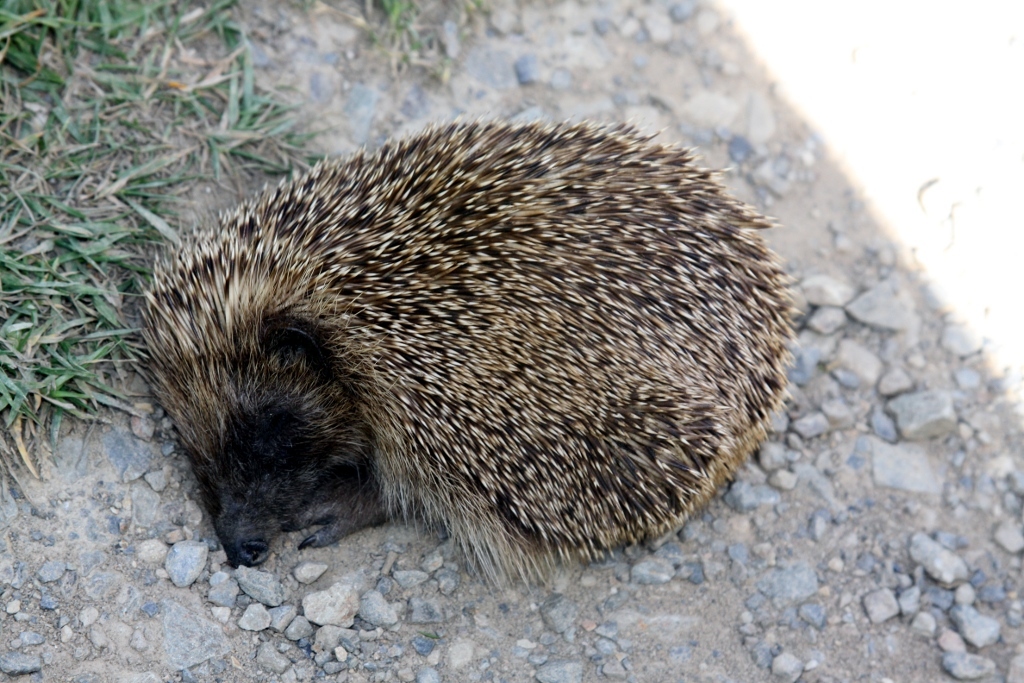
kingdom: Animalia
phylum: Chordata
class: Mammalia
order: Erinaceomorpha
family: Erinaceidae
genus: Erinaceus
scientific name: Erinaceus europaeus
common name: West european hedgehog
